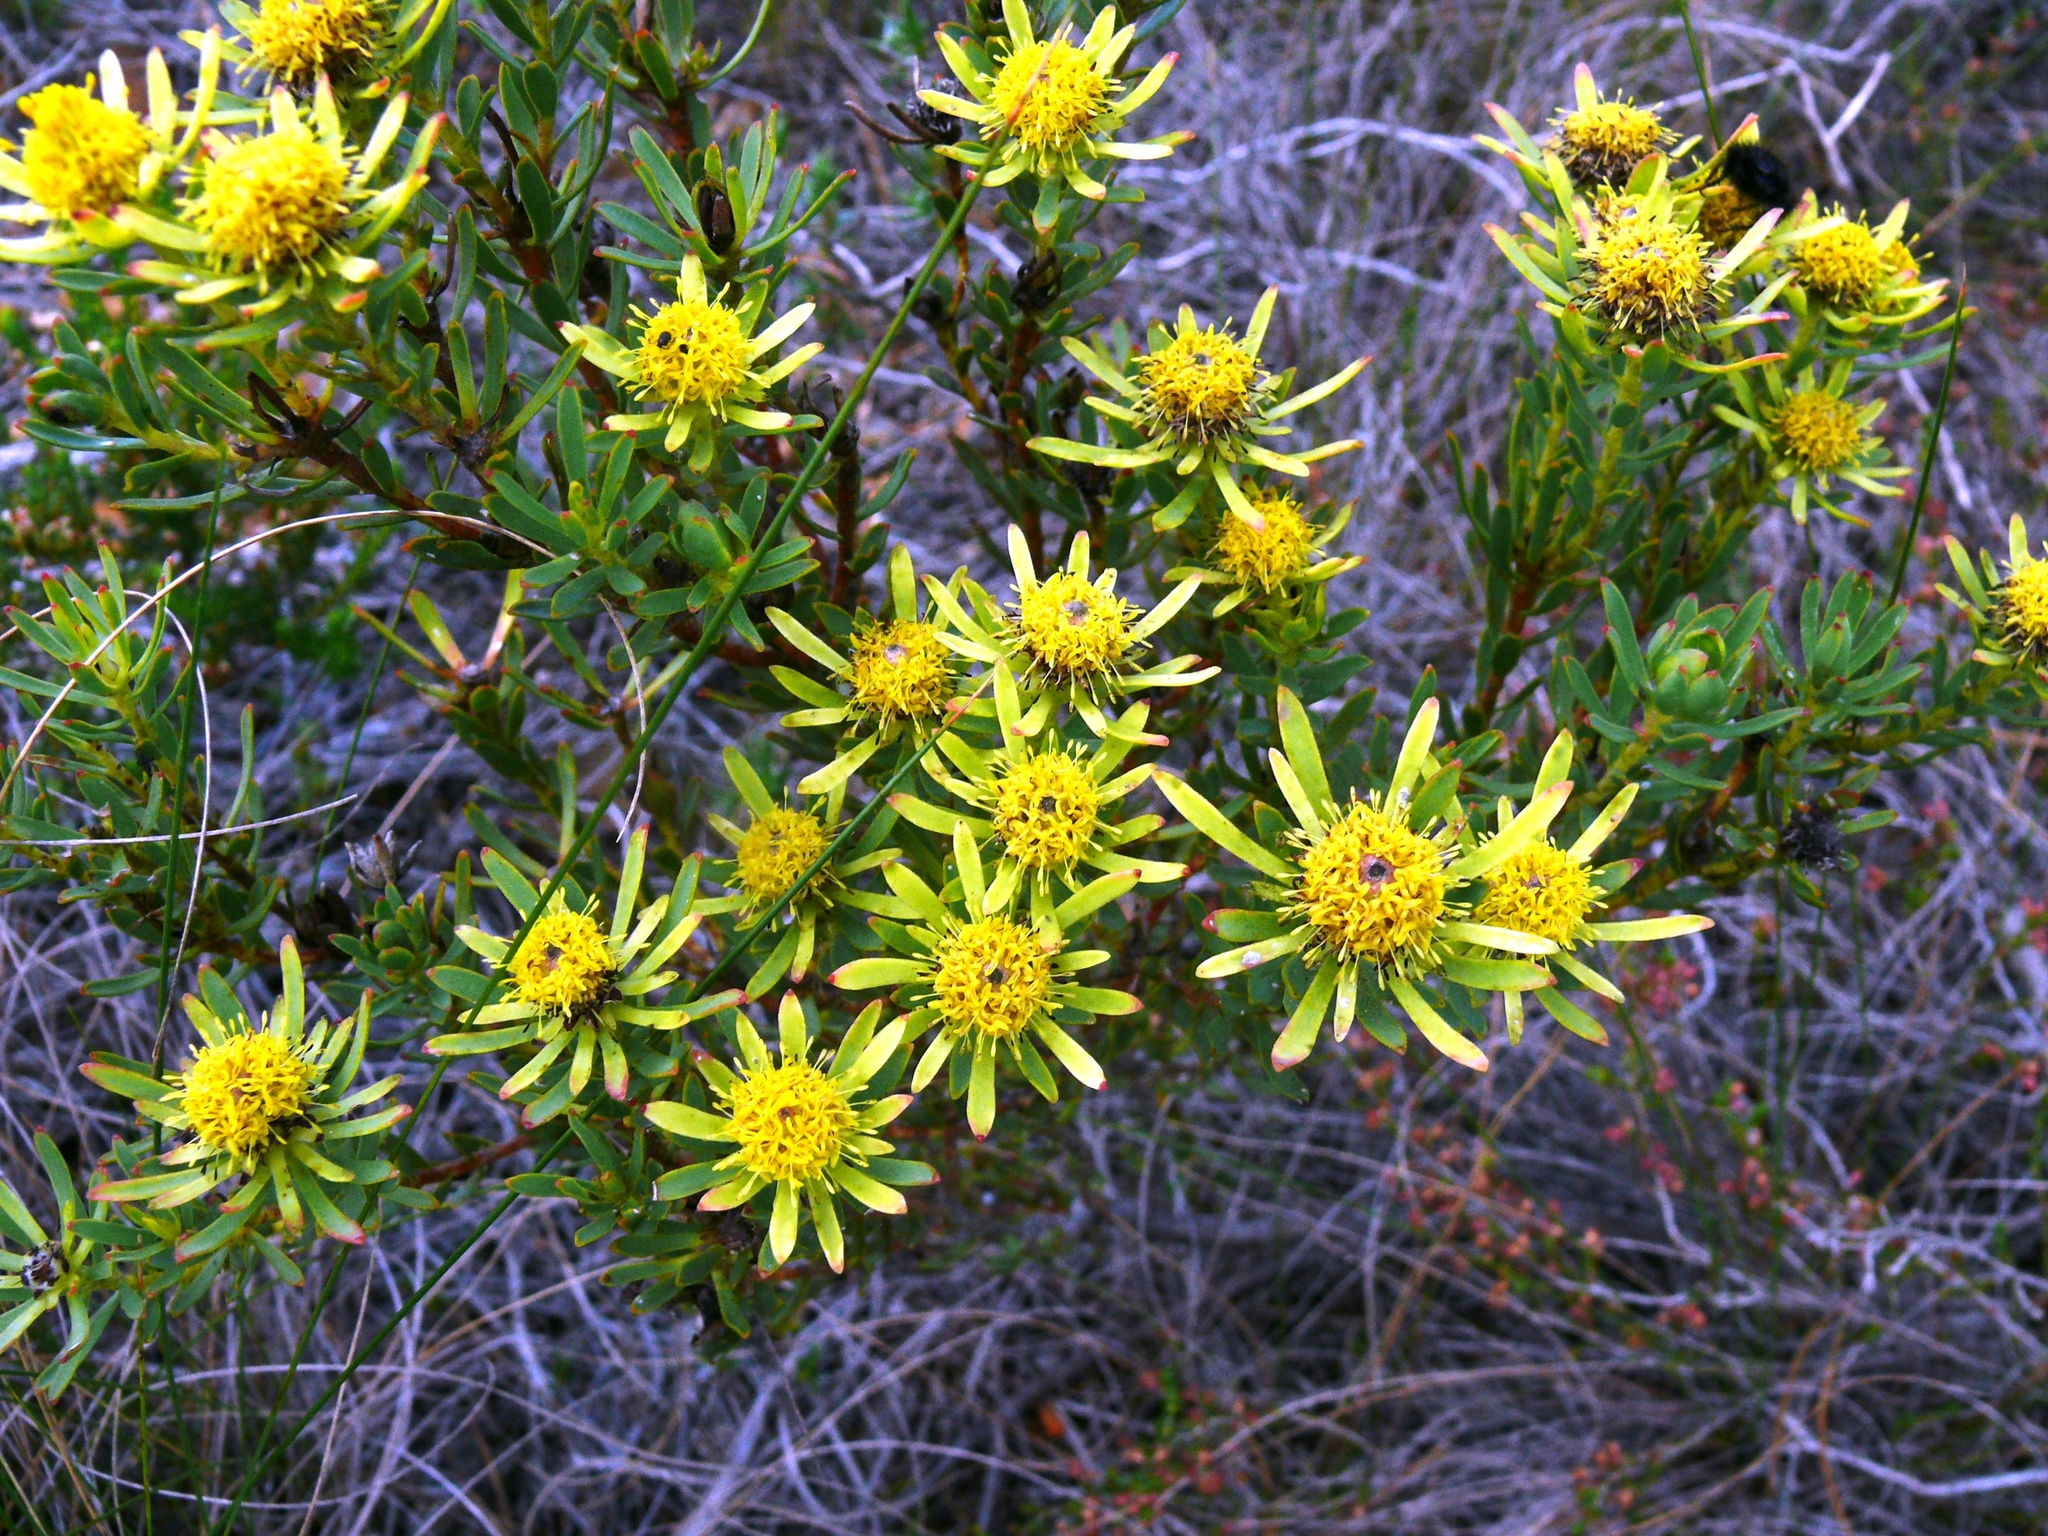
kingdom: Plantae
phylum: Tracheophyta
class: Magnoliopsida
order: Proteales
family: Proteaceae
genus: Leucadendron
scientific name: Leucadendron modestum
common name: Rough-leaf conebush
